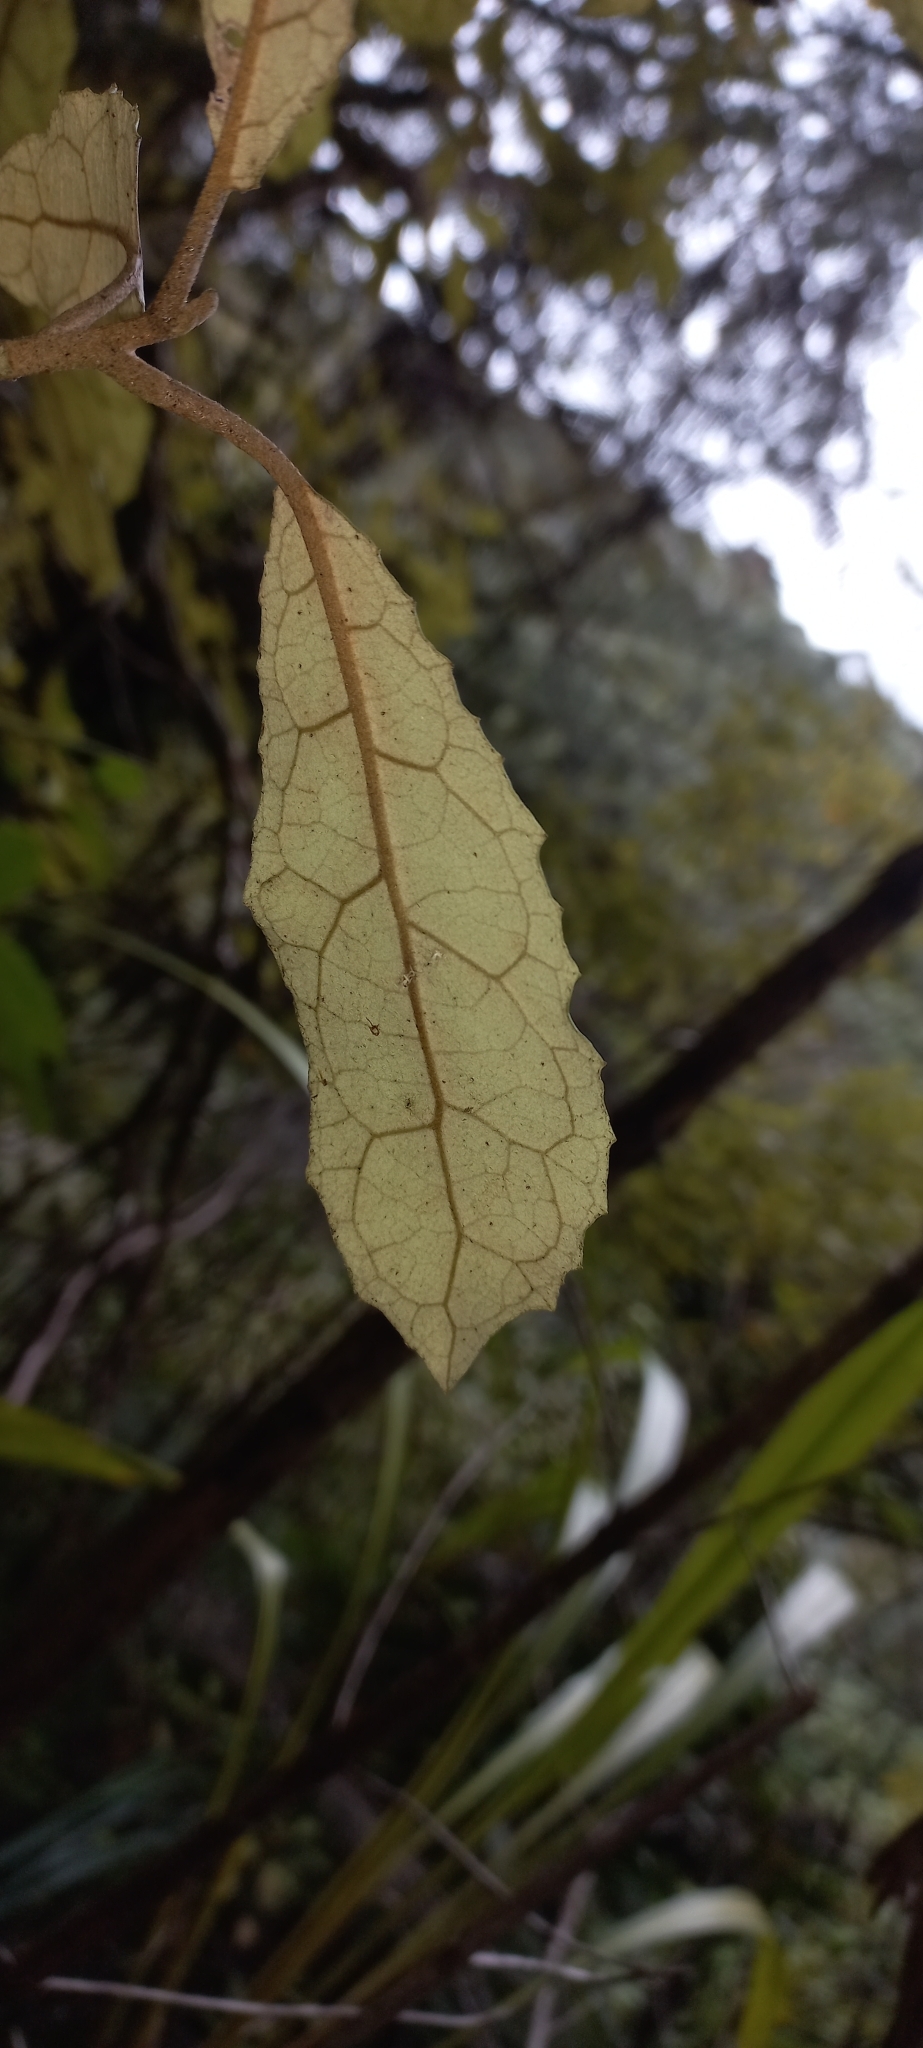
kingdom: Plantae
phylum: Tracheophyta
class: Magnoliopsida
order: Asterales
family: Asteraceae
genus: Olearia
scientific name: Olearia rani
